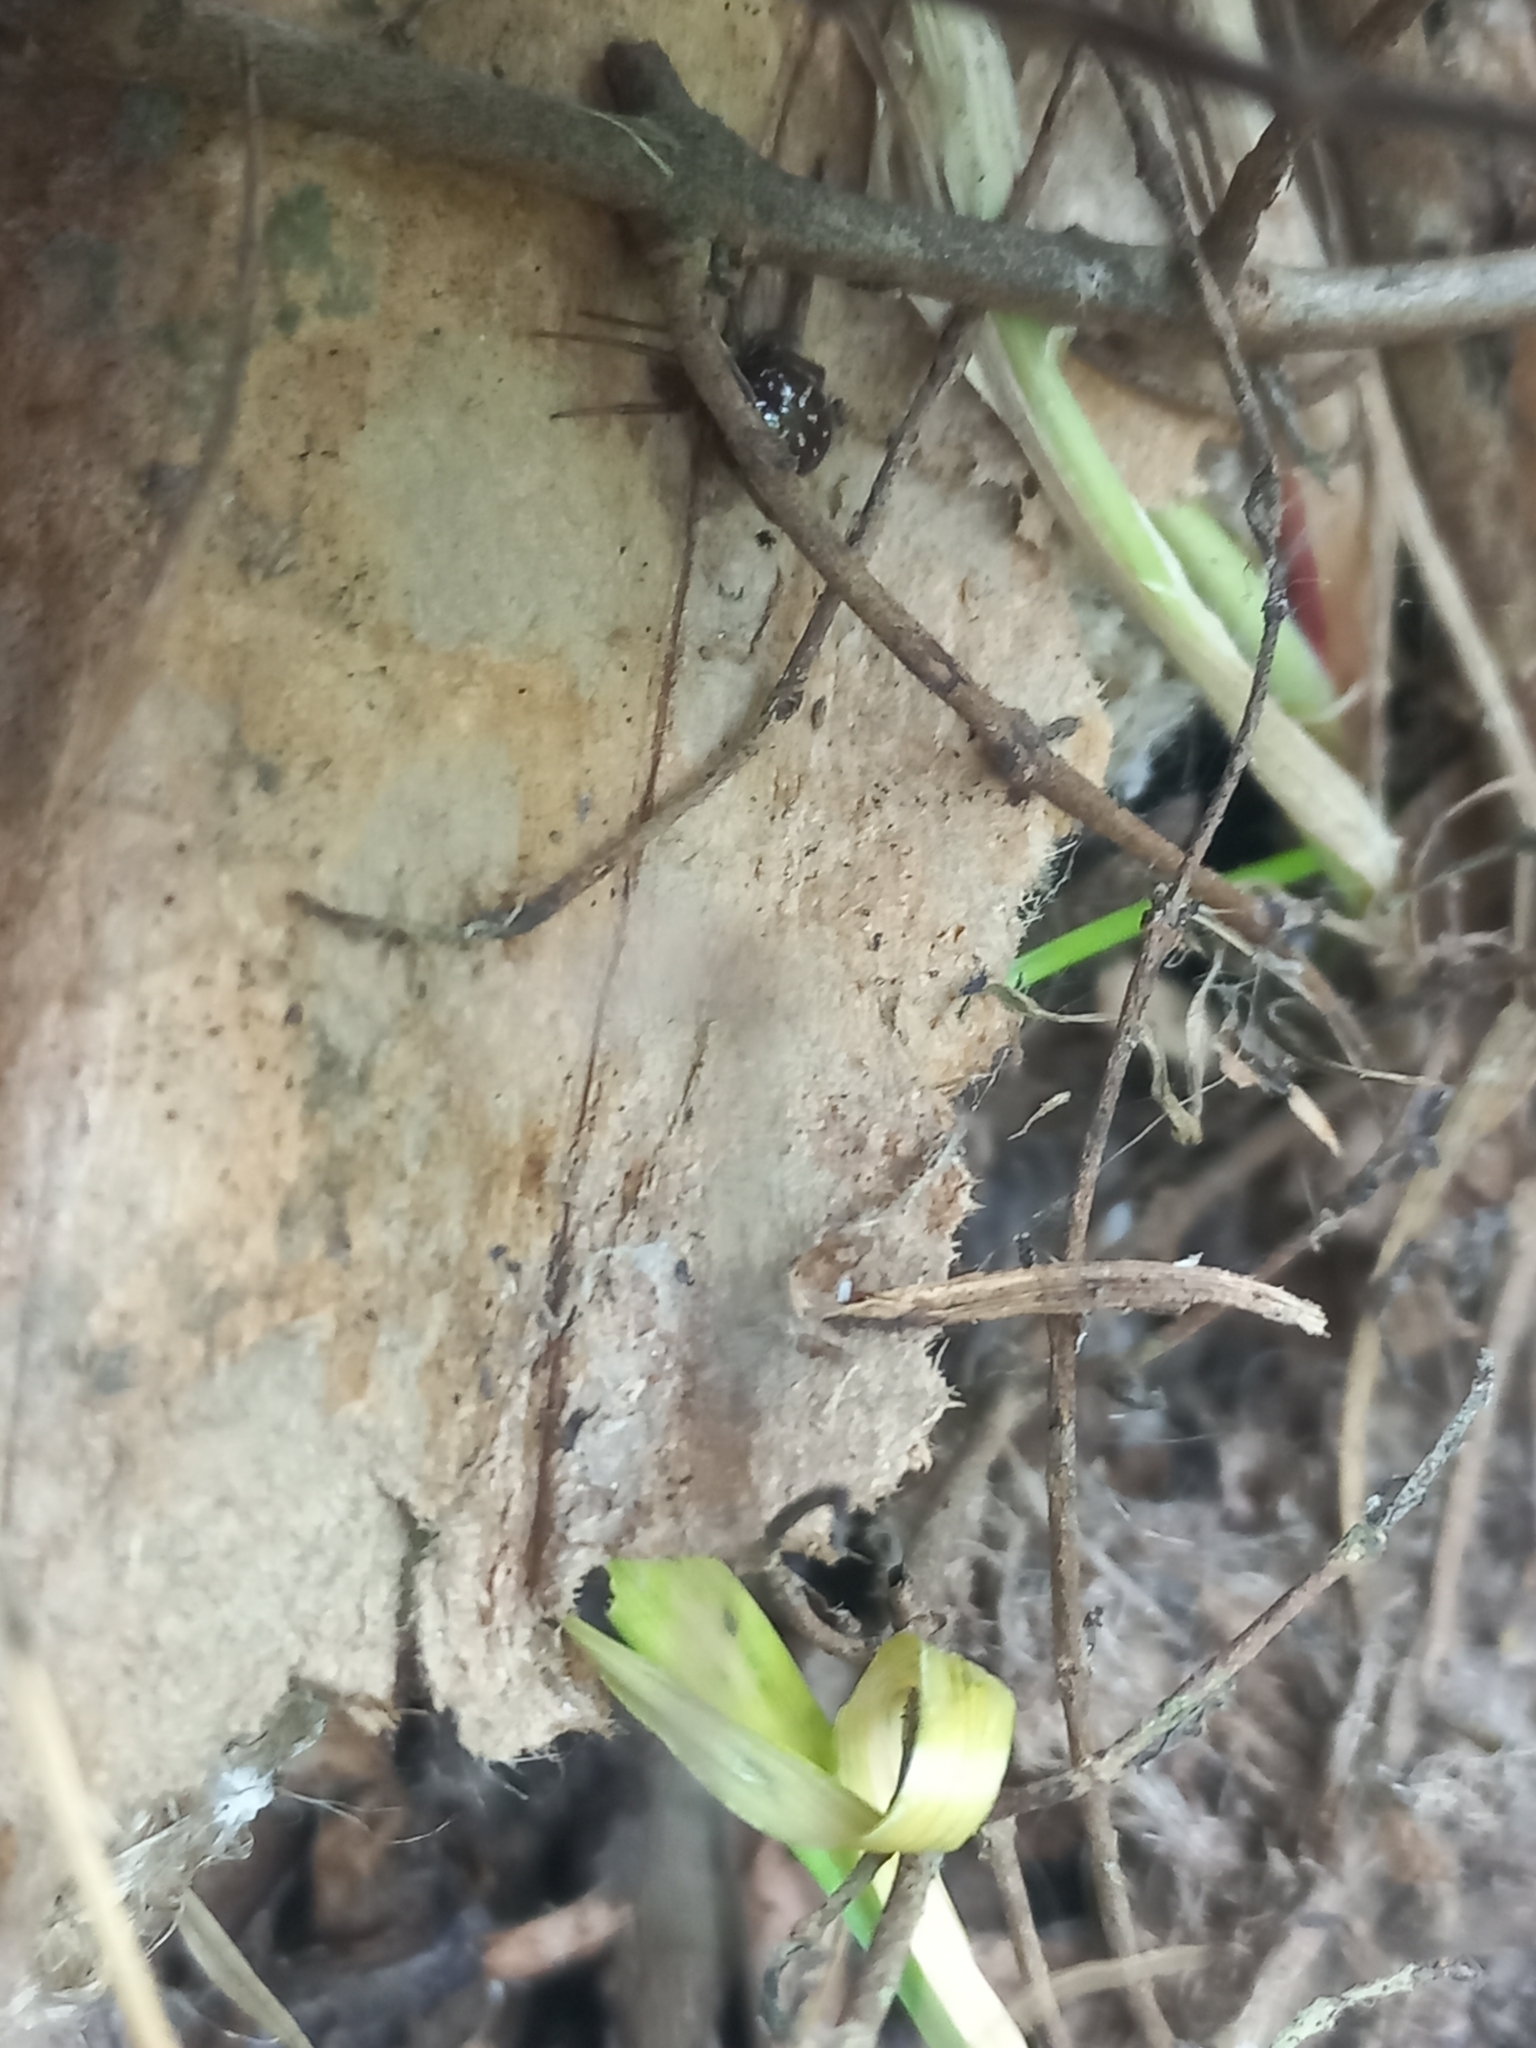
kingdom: Animalia
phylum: Arthropoda
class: Arachnida
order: Araneae
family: Theridiidae
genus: Steatoda
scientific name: Steatoda capensis
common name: Cobweb weaver
